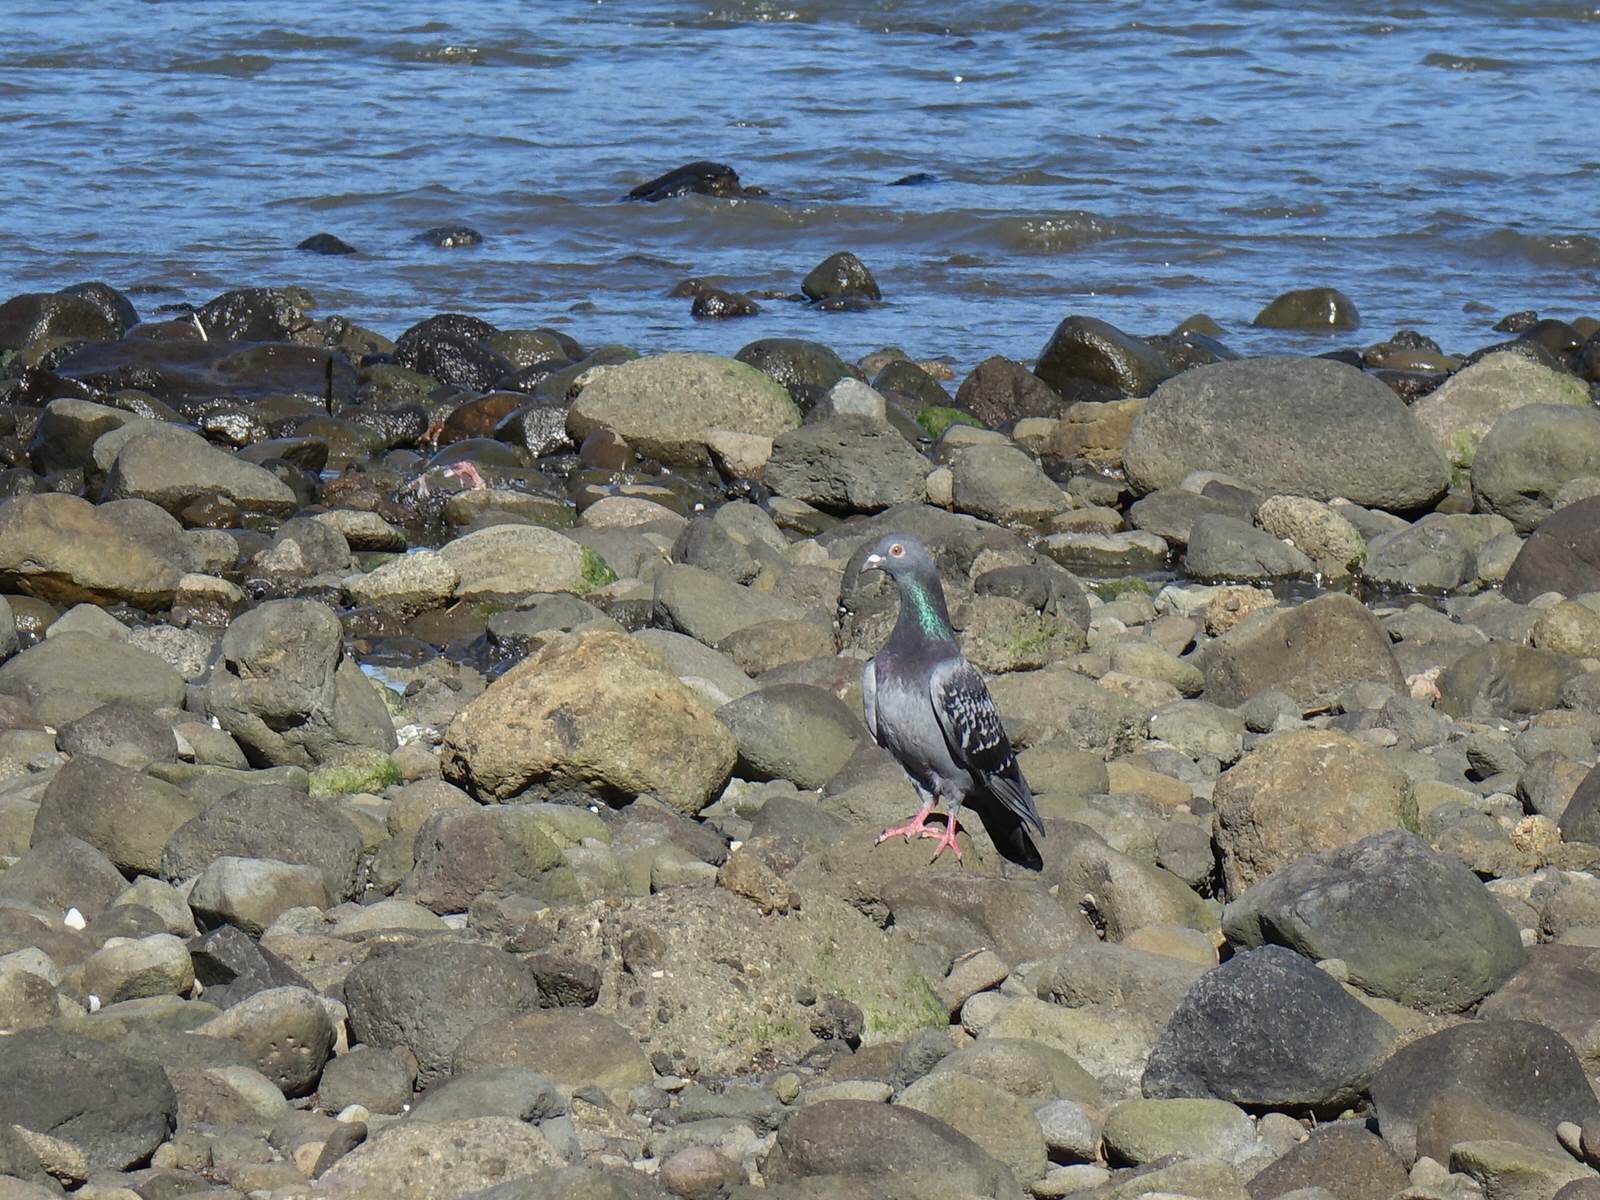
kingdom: Animalia
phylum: Chordata
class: Aves
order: Columbiformes
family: Columbidae
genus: Columba
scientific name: Columba livia
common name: Rock pigeon
